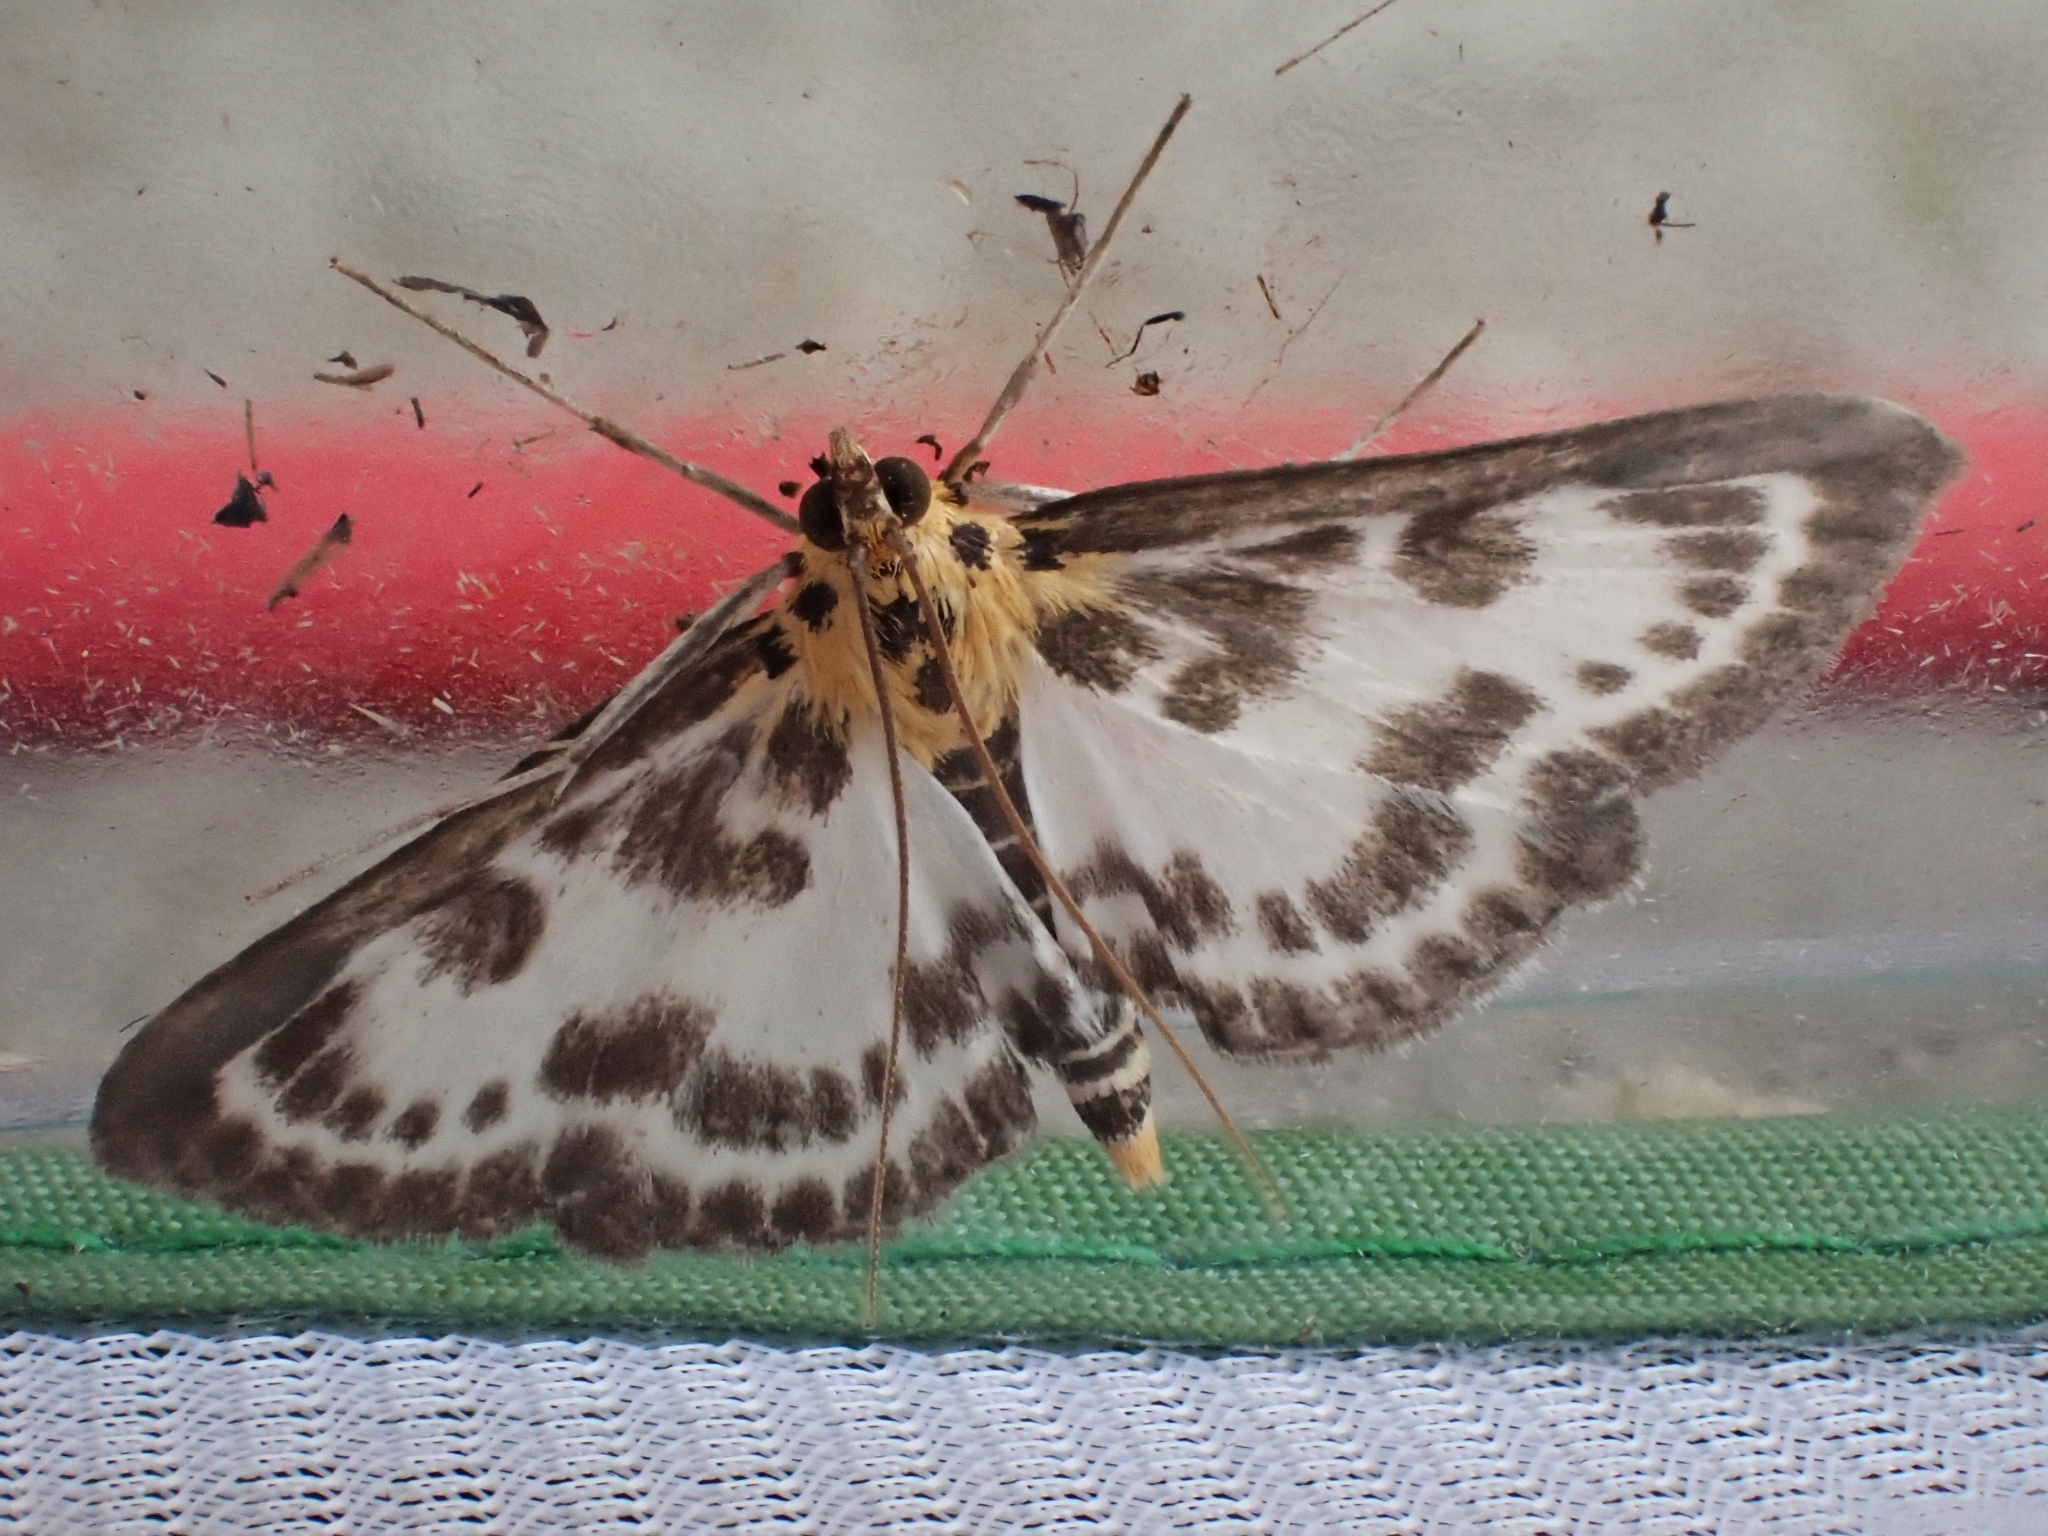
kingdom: Animalia
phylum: Arthropoda
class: Insecta
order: Lepidoptera
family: Crambidae
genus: Anania
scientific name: Anania hortulata
